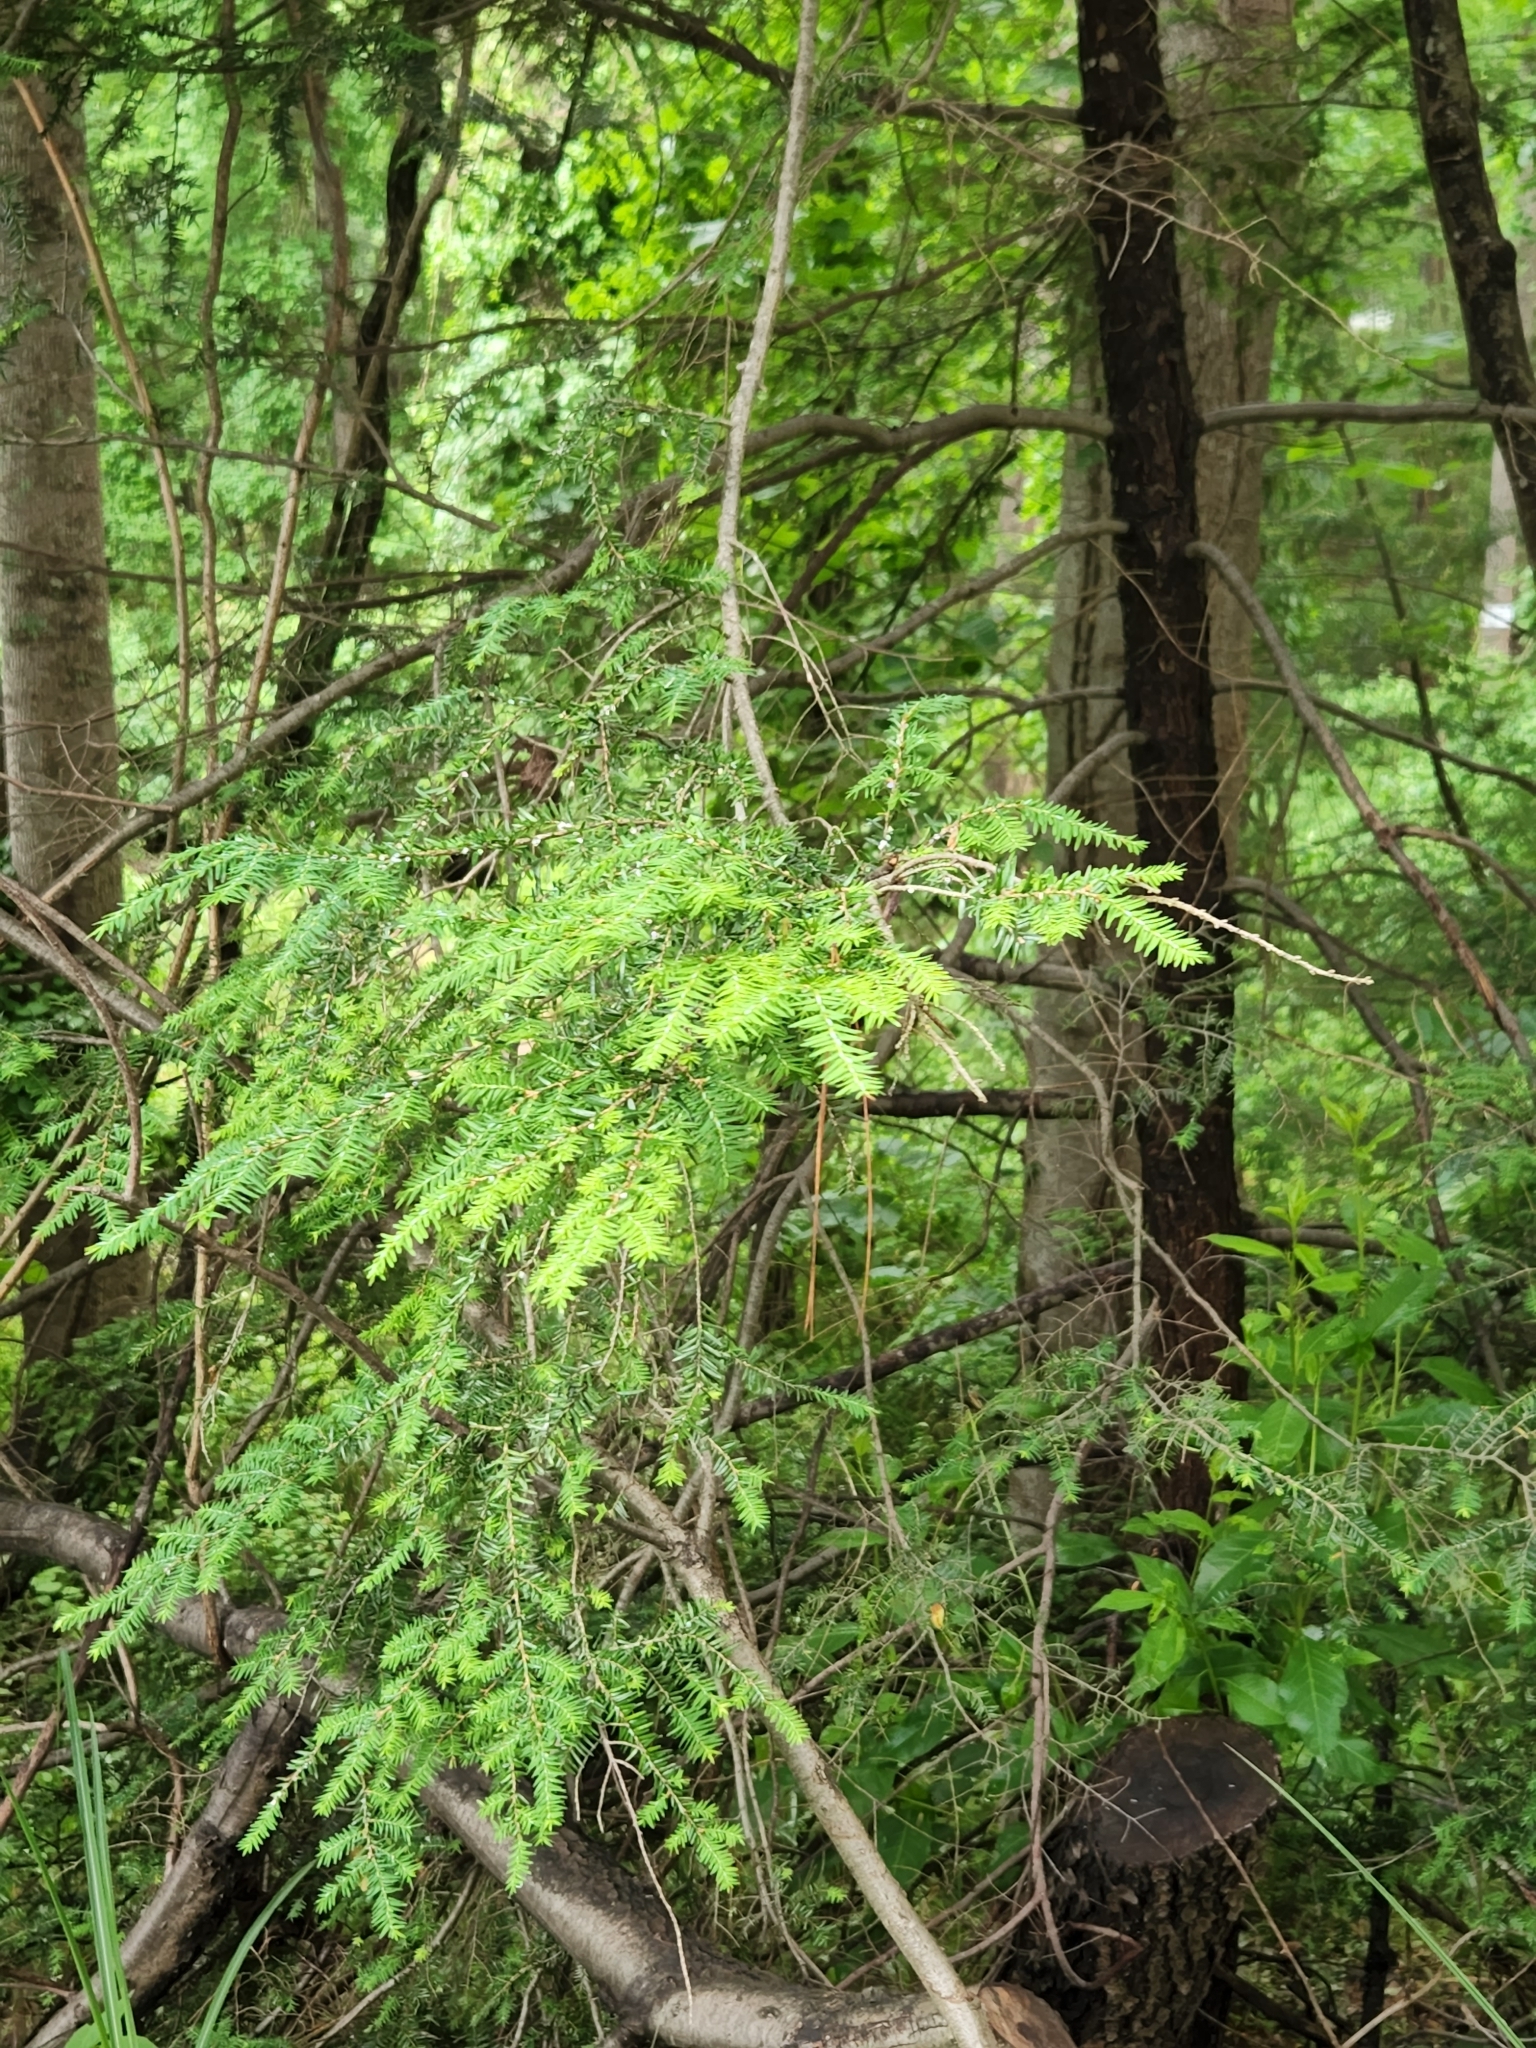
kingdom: Plantae
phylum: Tracheophyta
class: Pinopsida
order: Pinales
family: Pinaceae
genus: Tsuga
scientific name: Tsuga canadensis
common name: Eastern hemlock
